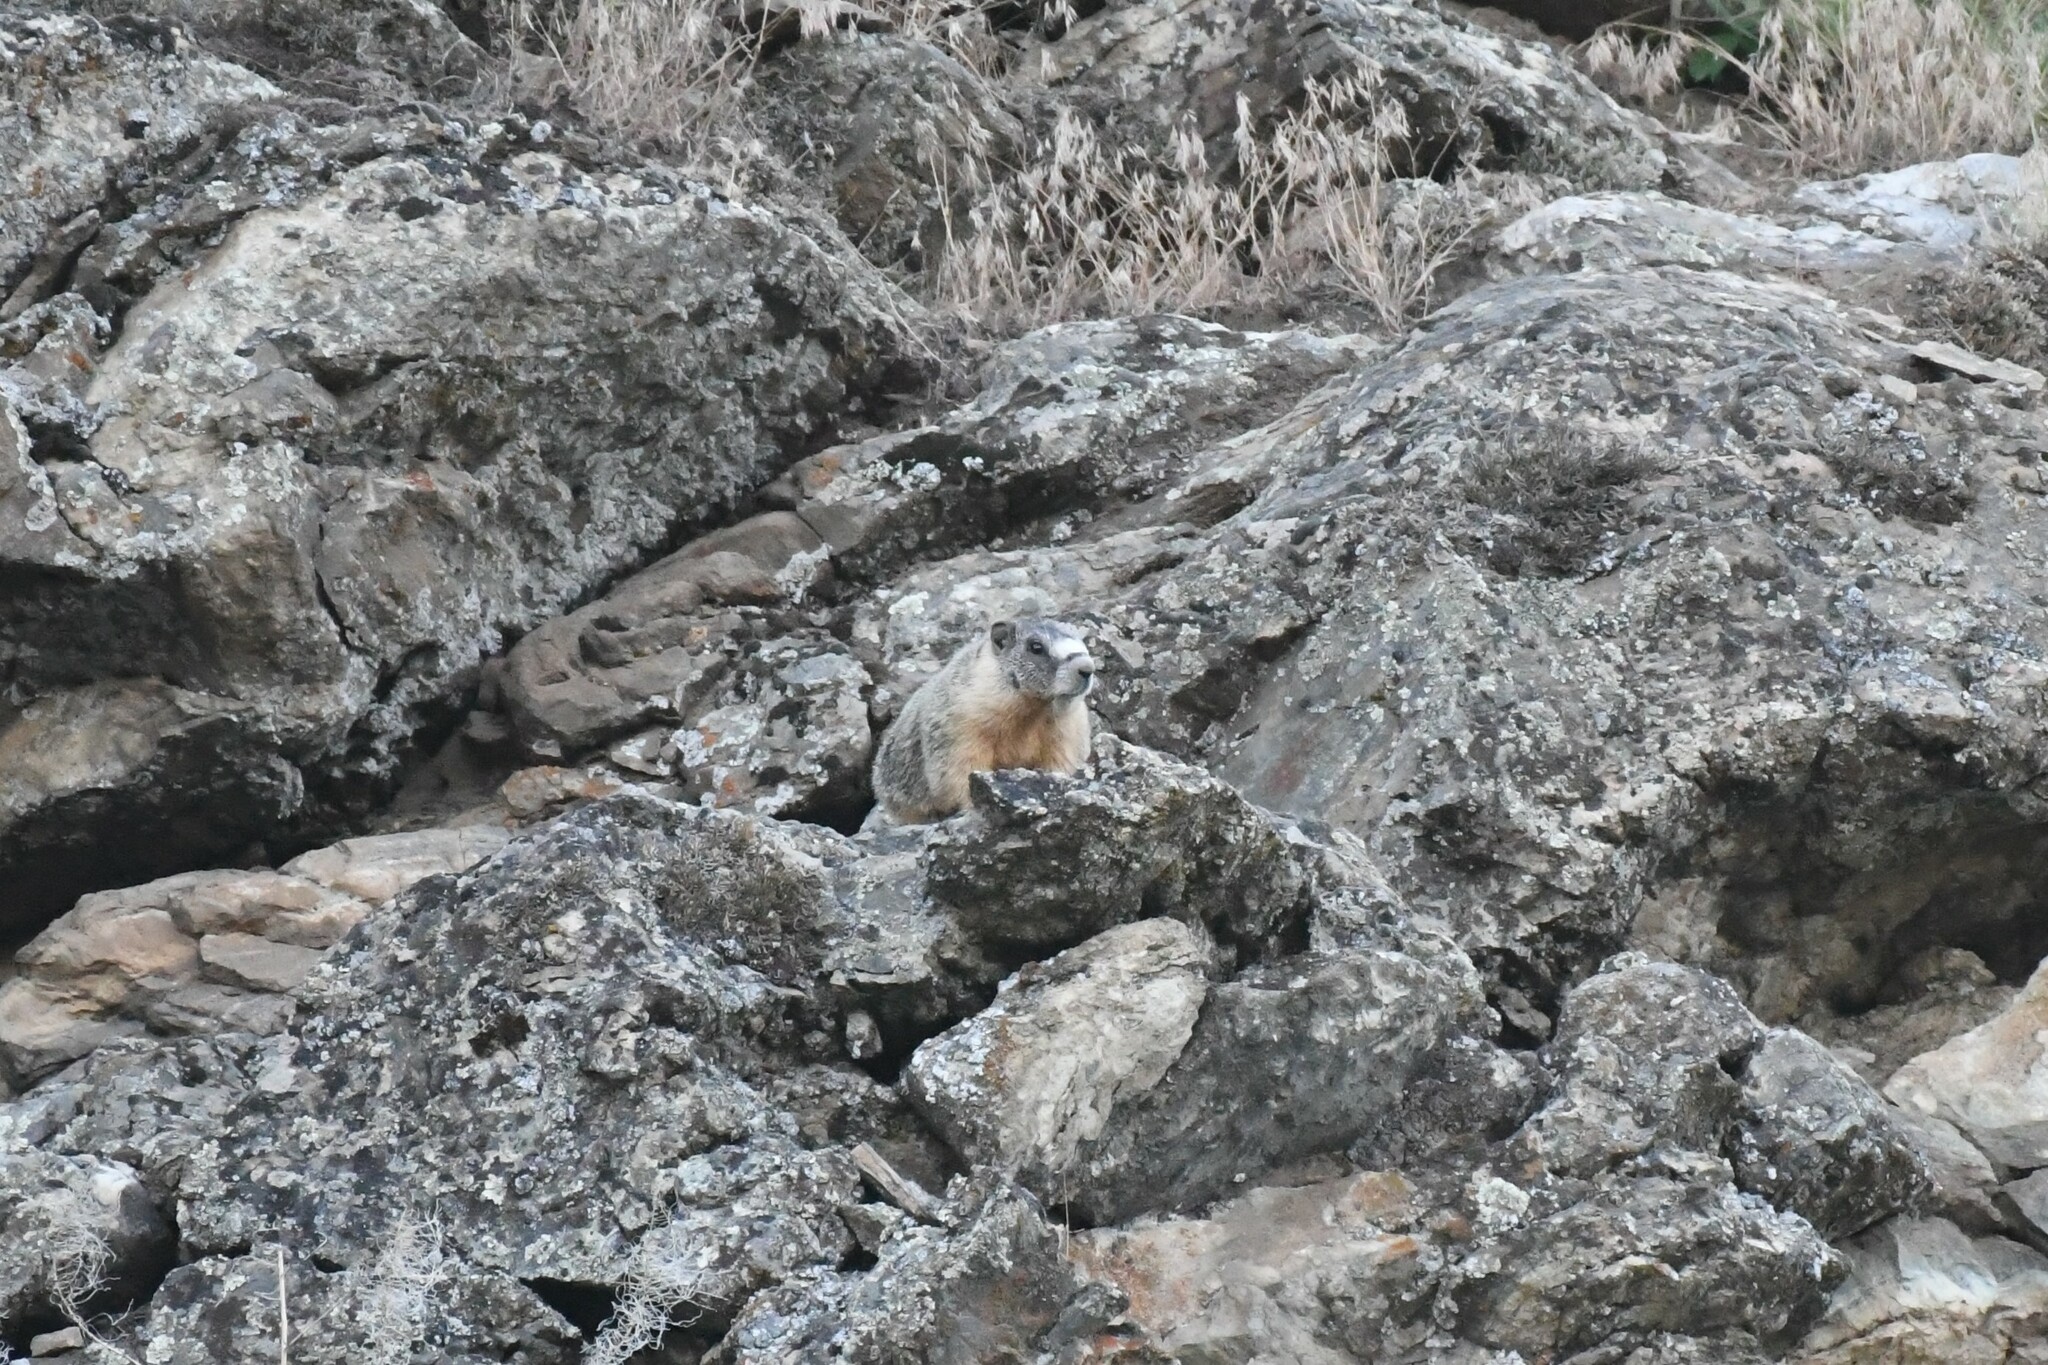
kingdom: Animalia
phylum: Chordata
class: Mammalia
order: Rodentia
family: Sciuridae
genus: Marmota
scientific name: Marmota flaviventris
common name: Yellow-bellied marmot
